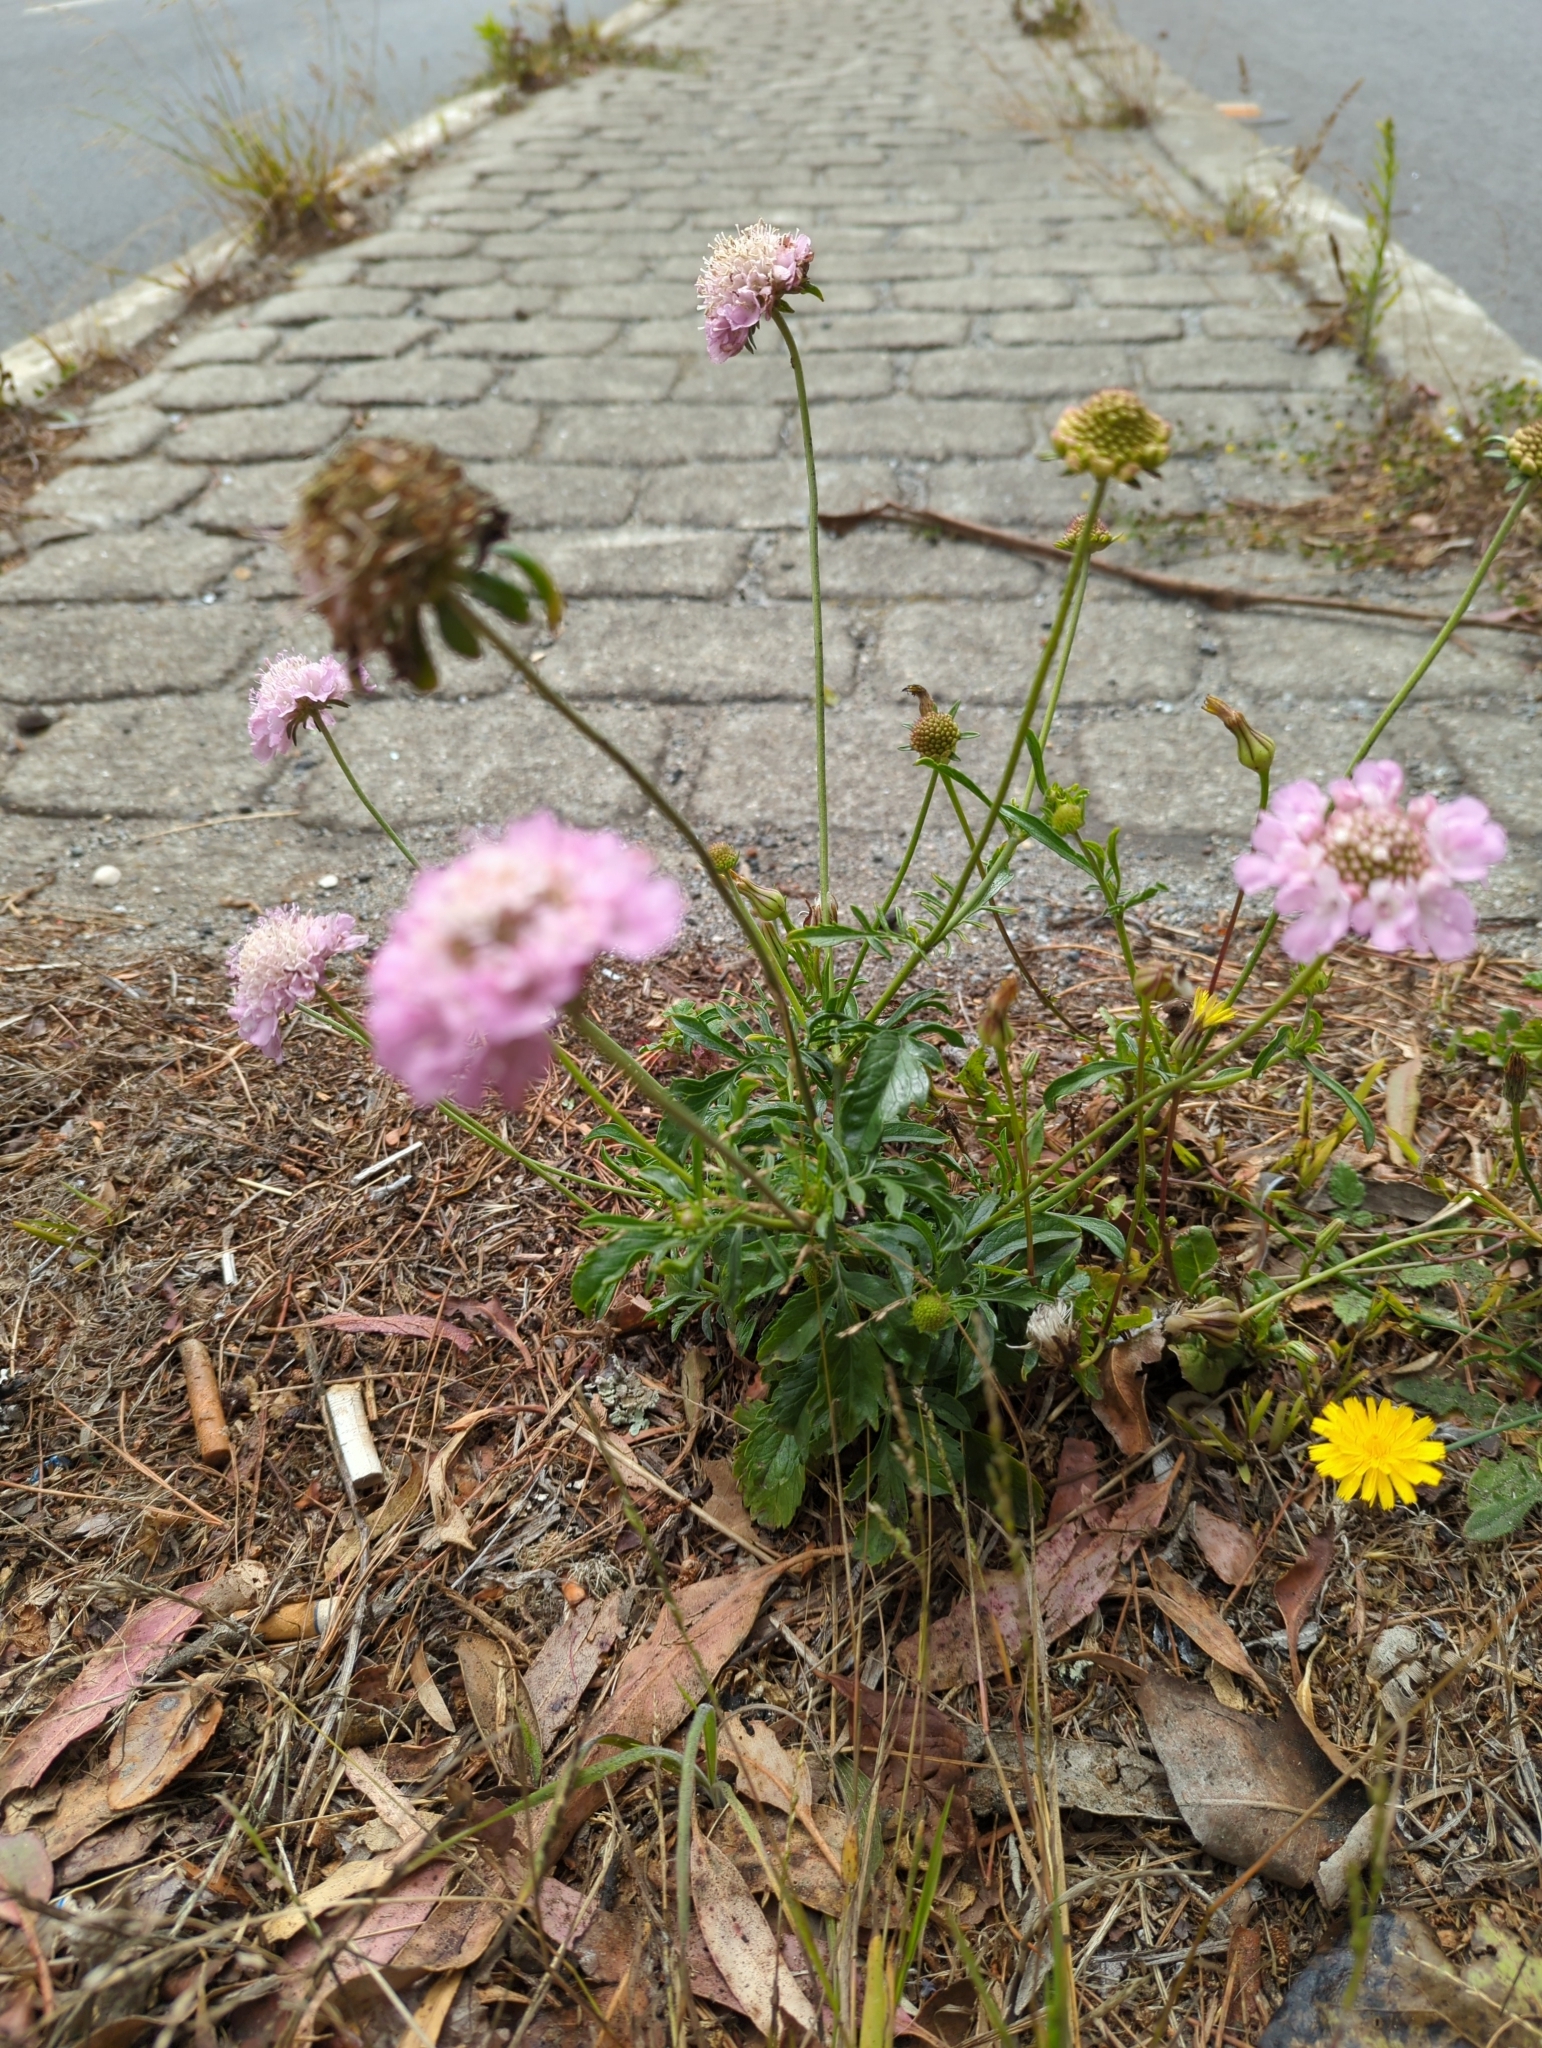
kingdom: Plantae
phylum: Tracheophyta
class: Magnoliopsida
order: Dipsacales
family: Caprifoliaceae
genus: Sixalix
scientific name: Sixalix atropurpurea
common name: Sweet scabious
